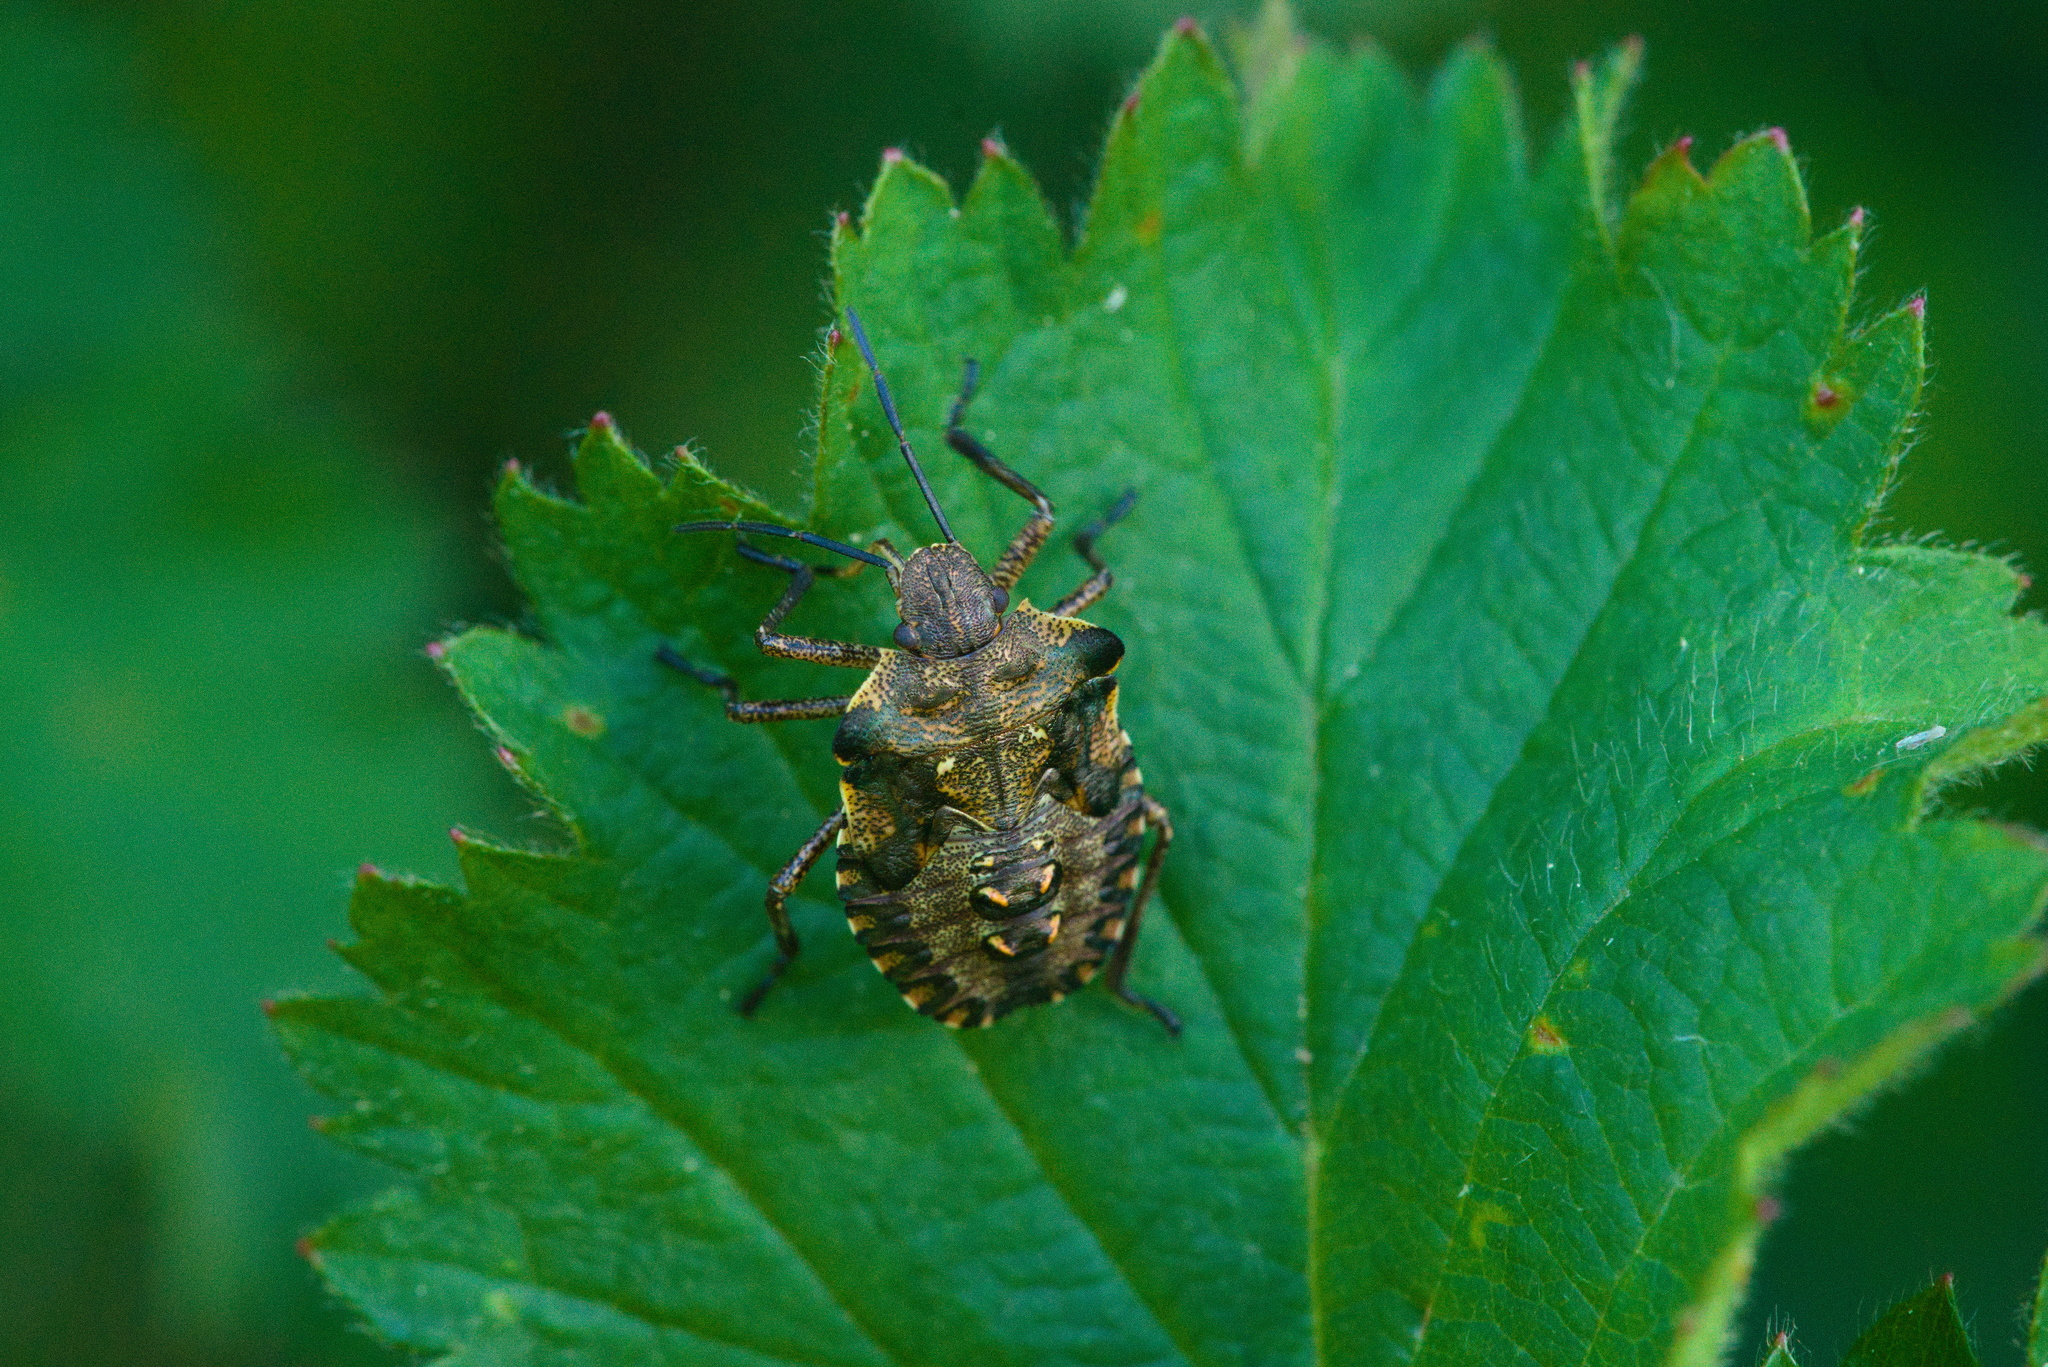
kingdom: Animalia
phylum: Arthropoda
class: Insecta
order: Hemiptera
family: Pentatomidae
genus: Pentatoma
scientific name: Pentatoma rufipes
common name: Forest bug
